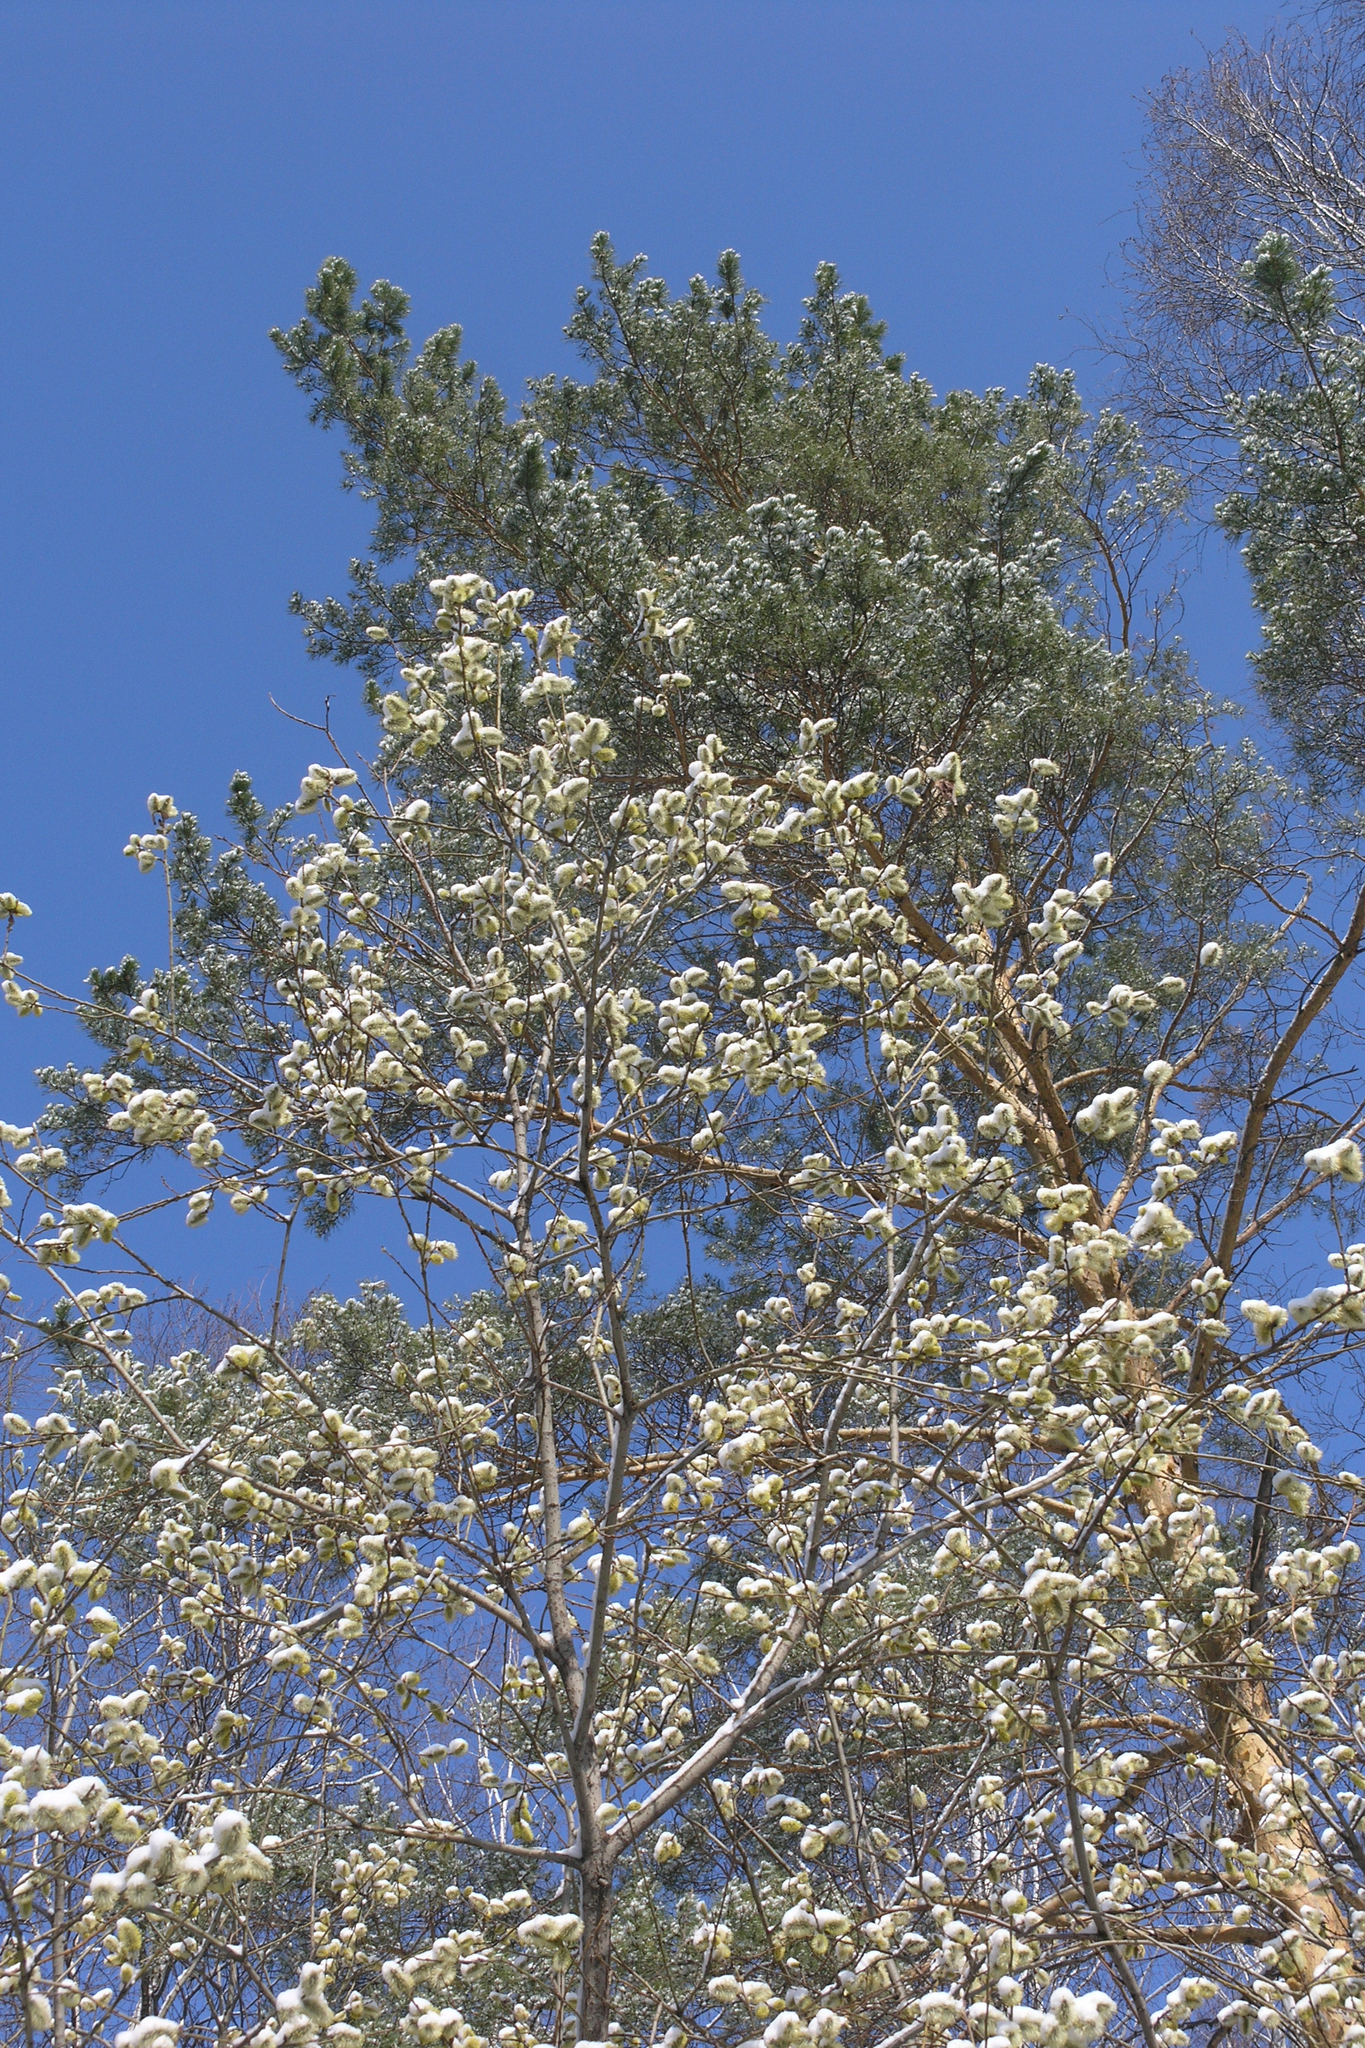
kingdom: Plantae
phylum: Tracheophyta
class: Magnoliopsida
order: Malpighiales
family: Salicaceae
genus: Salix
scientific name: Salix caprea
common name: Goat willow
